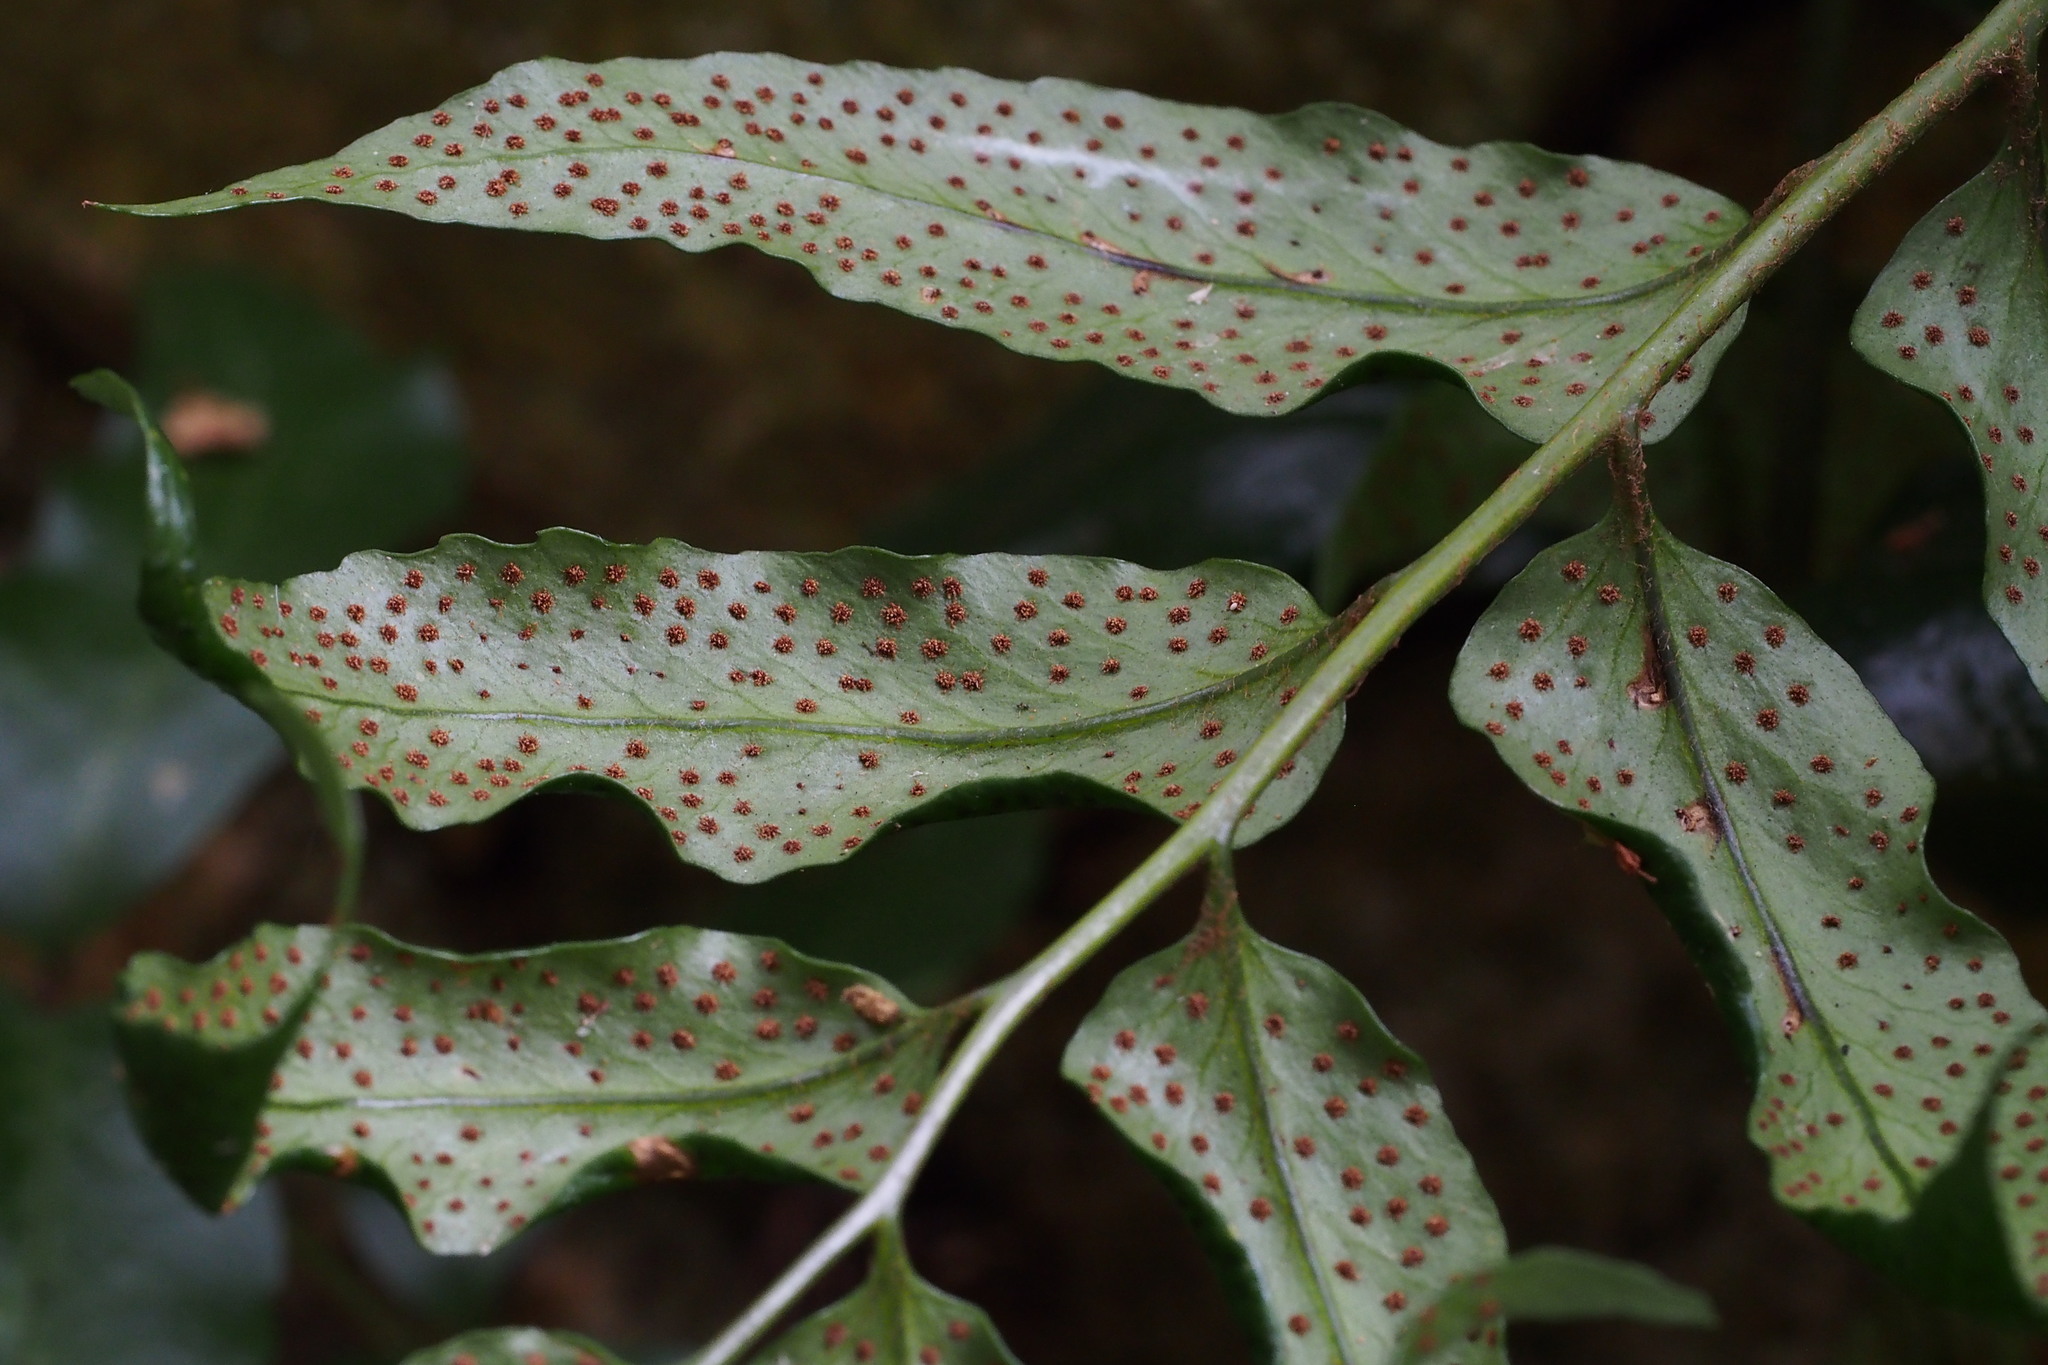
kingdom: Plantae
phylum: Tracheophyta
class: Polypodiopsida
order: Polypodiales
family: Dryopteridaceae
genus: Cyrtomium
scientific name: Cyrtomium fortunei
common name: Asian netvein hollyfern
